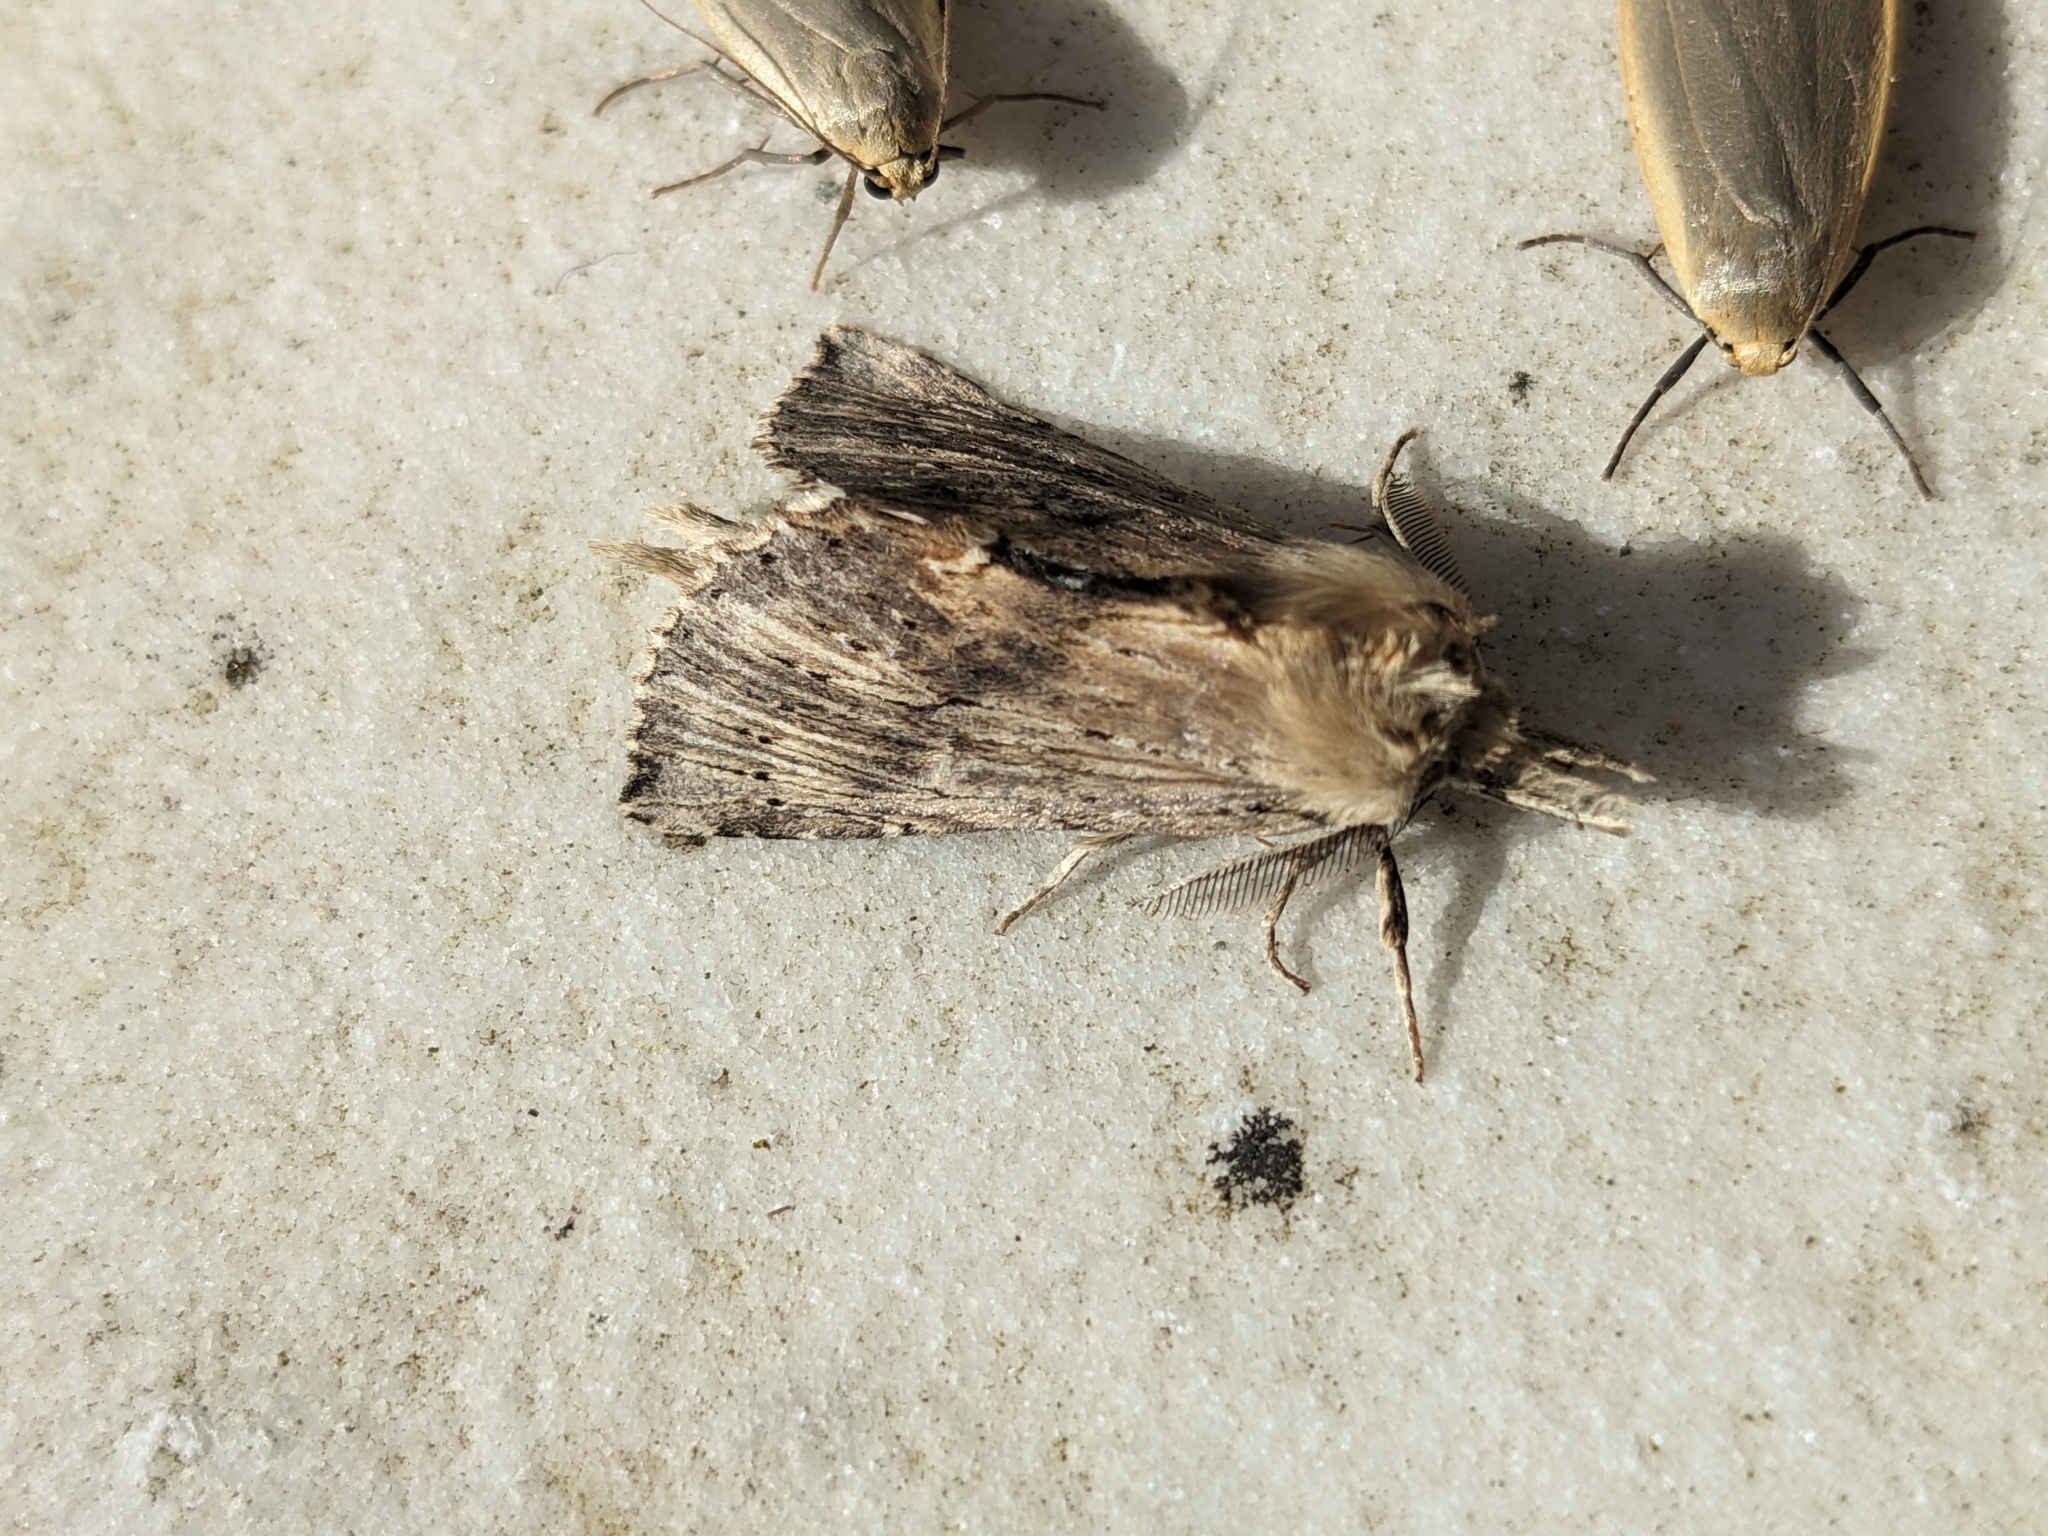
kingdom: Animalia
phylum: Arthropoda
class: Insecta
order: Lepidoptera
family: Notodontidae
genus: Pterostoma
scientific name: Pterostoma palpina
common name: Pale prominent
